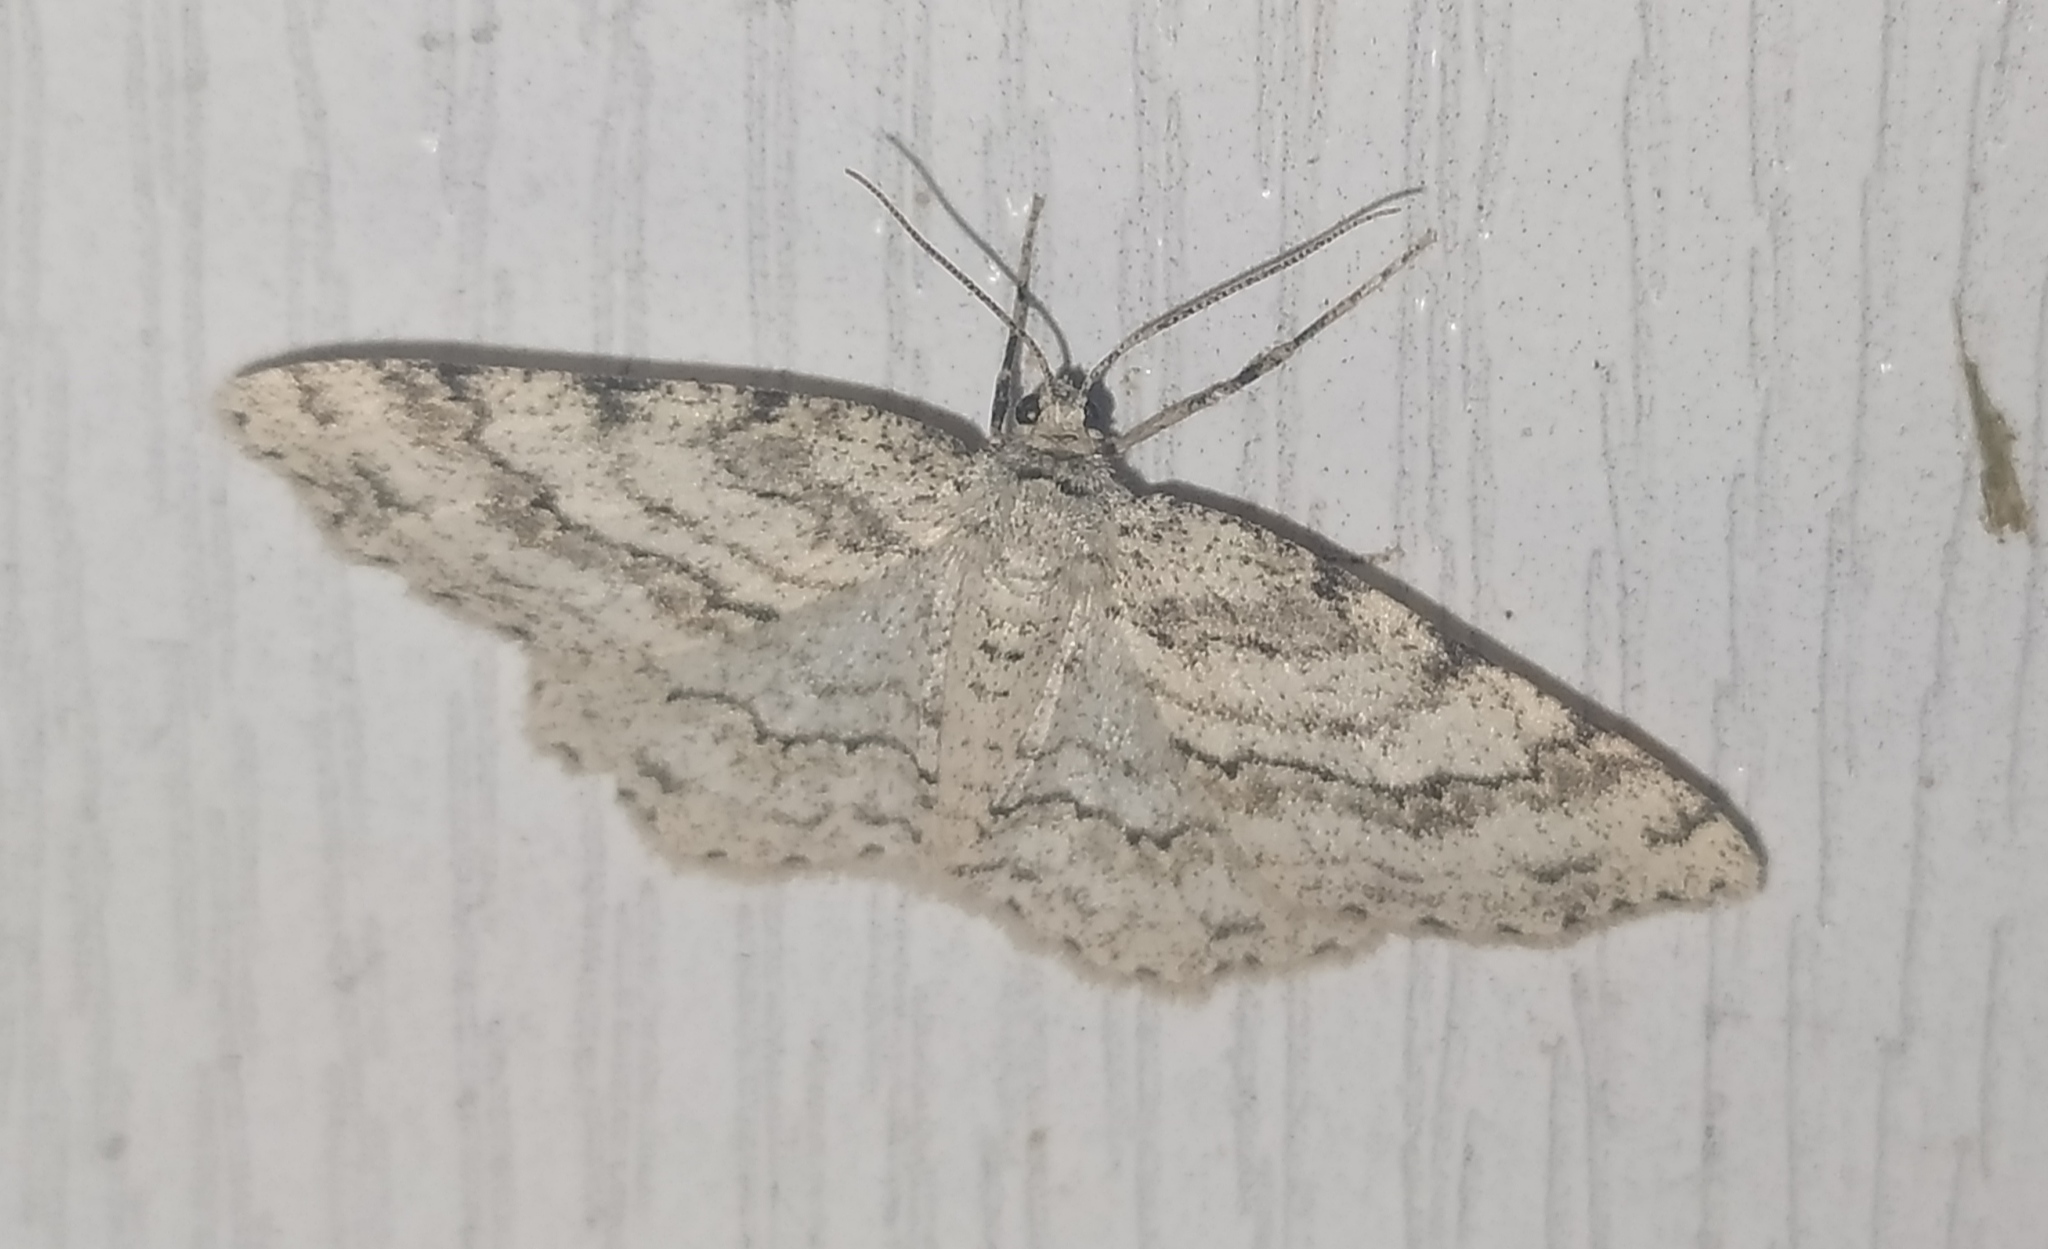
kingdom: Animalia
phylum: Arthropoda
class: Insecta
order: Lepidoptera
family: Geometridae
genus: Ectropis
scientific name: Ectropis crepuscularia
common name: Engrailed
